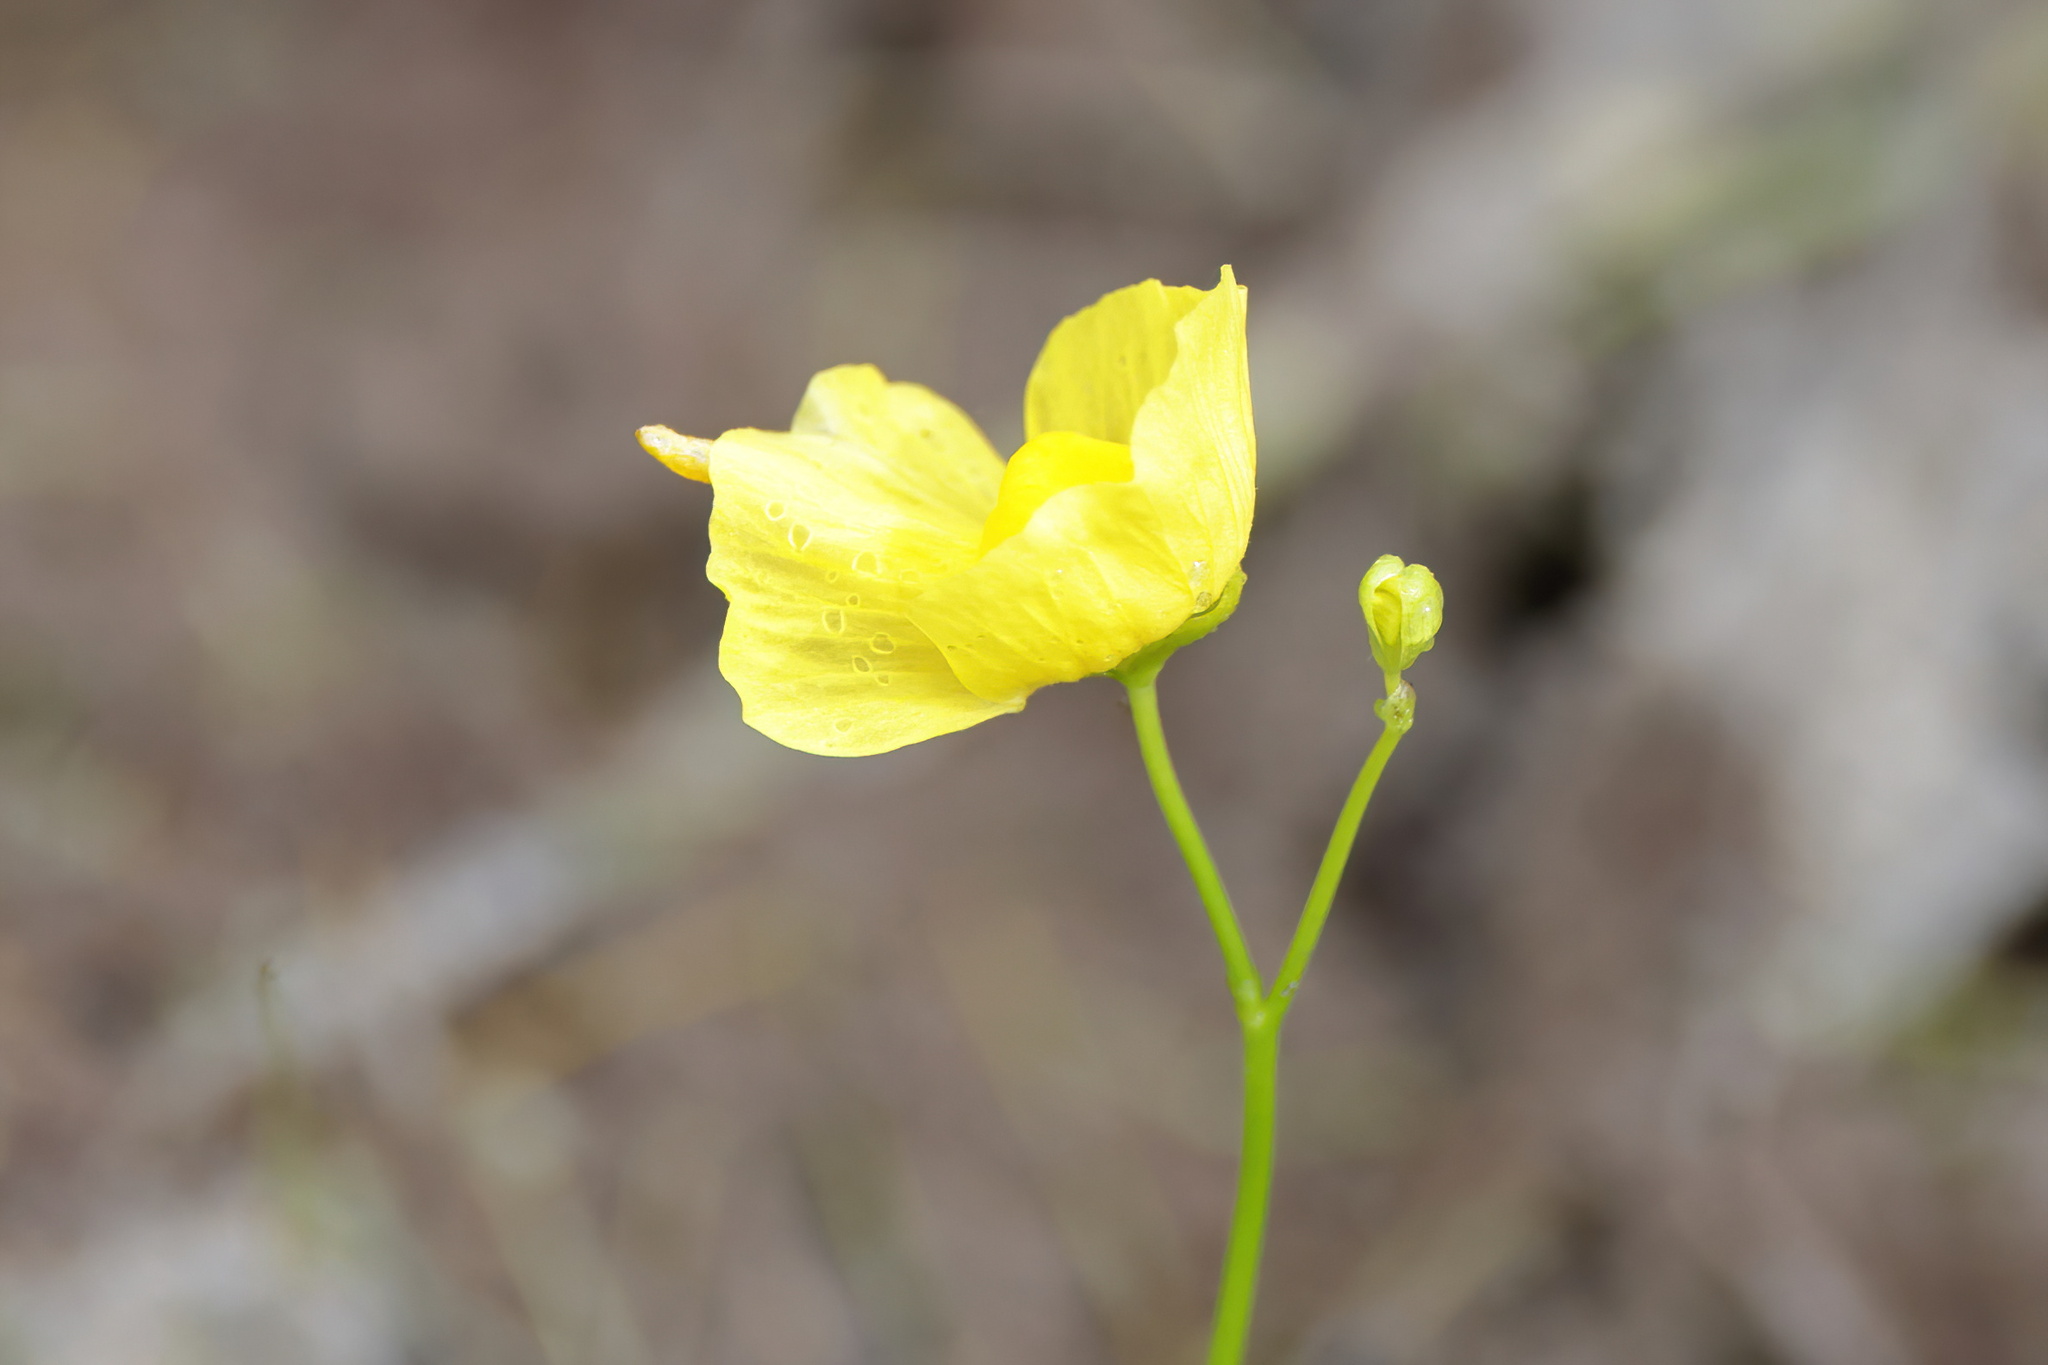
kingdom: Plantae
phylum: Tracheophyta
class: Magnoliopsida
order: Lamiales
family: Lentibulariaceae
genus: Utricularia
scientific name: Utricularia gibba
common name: Humped bladderwort
